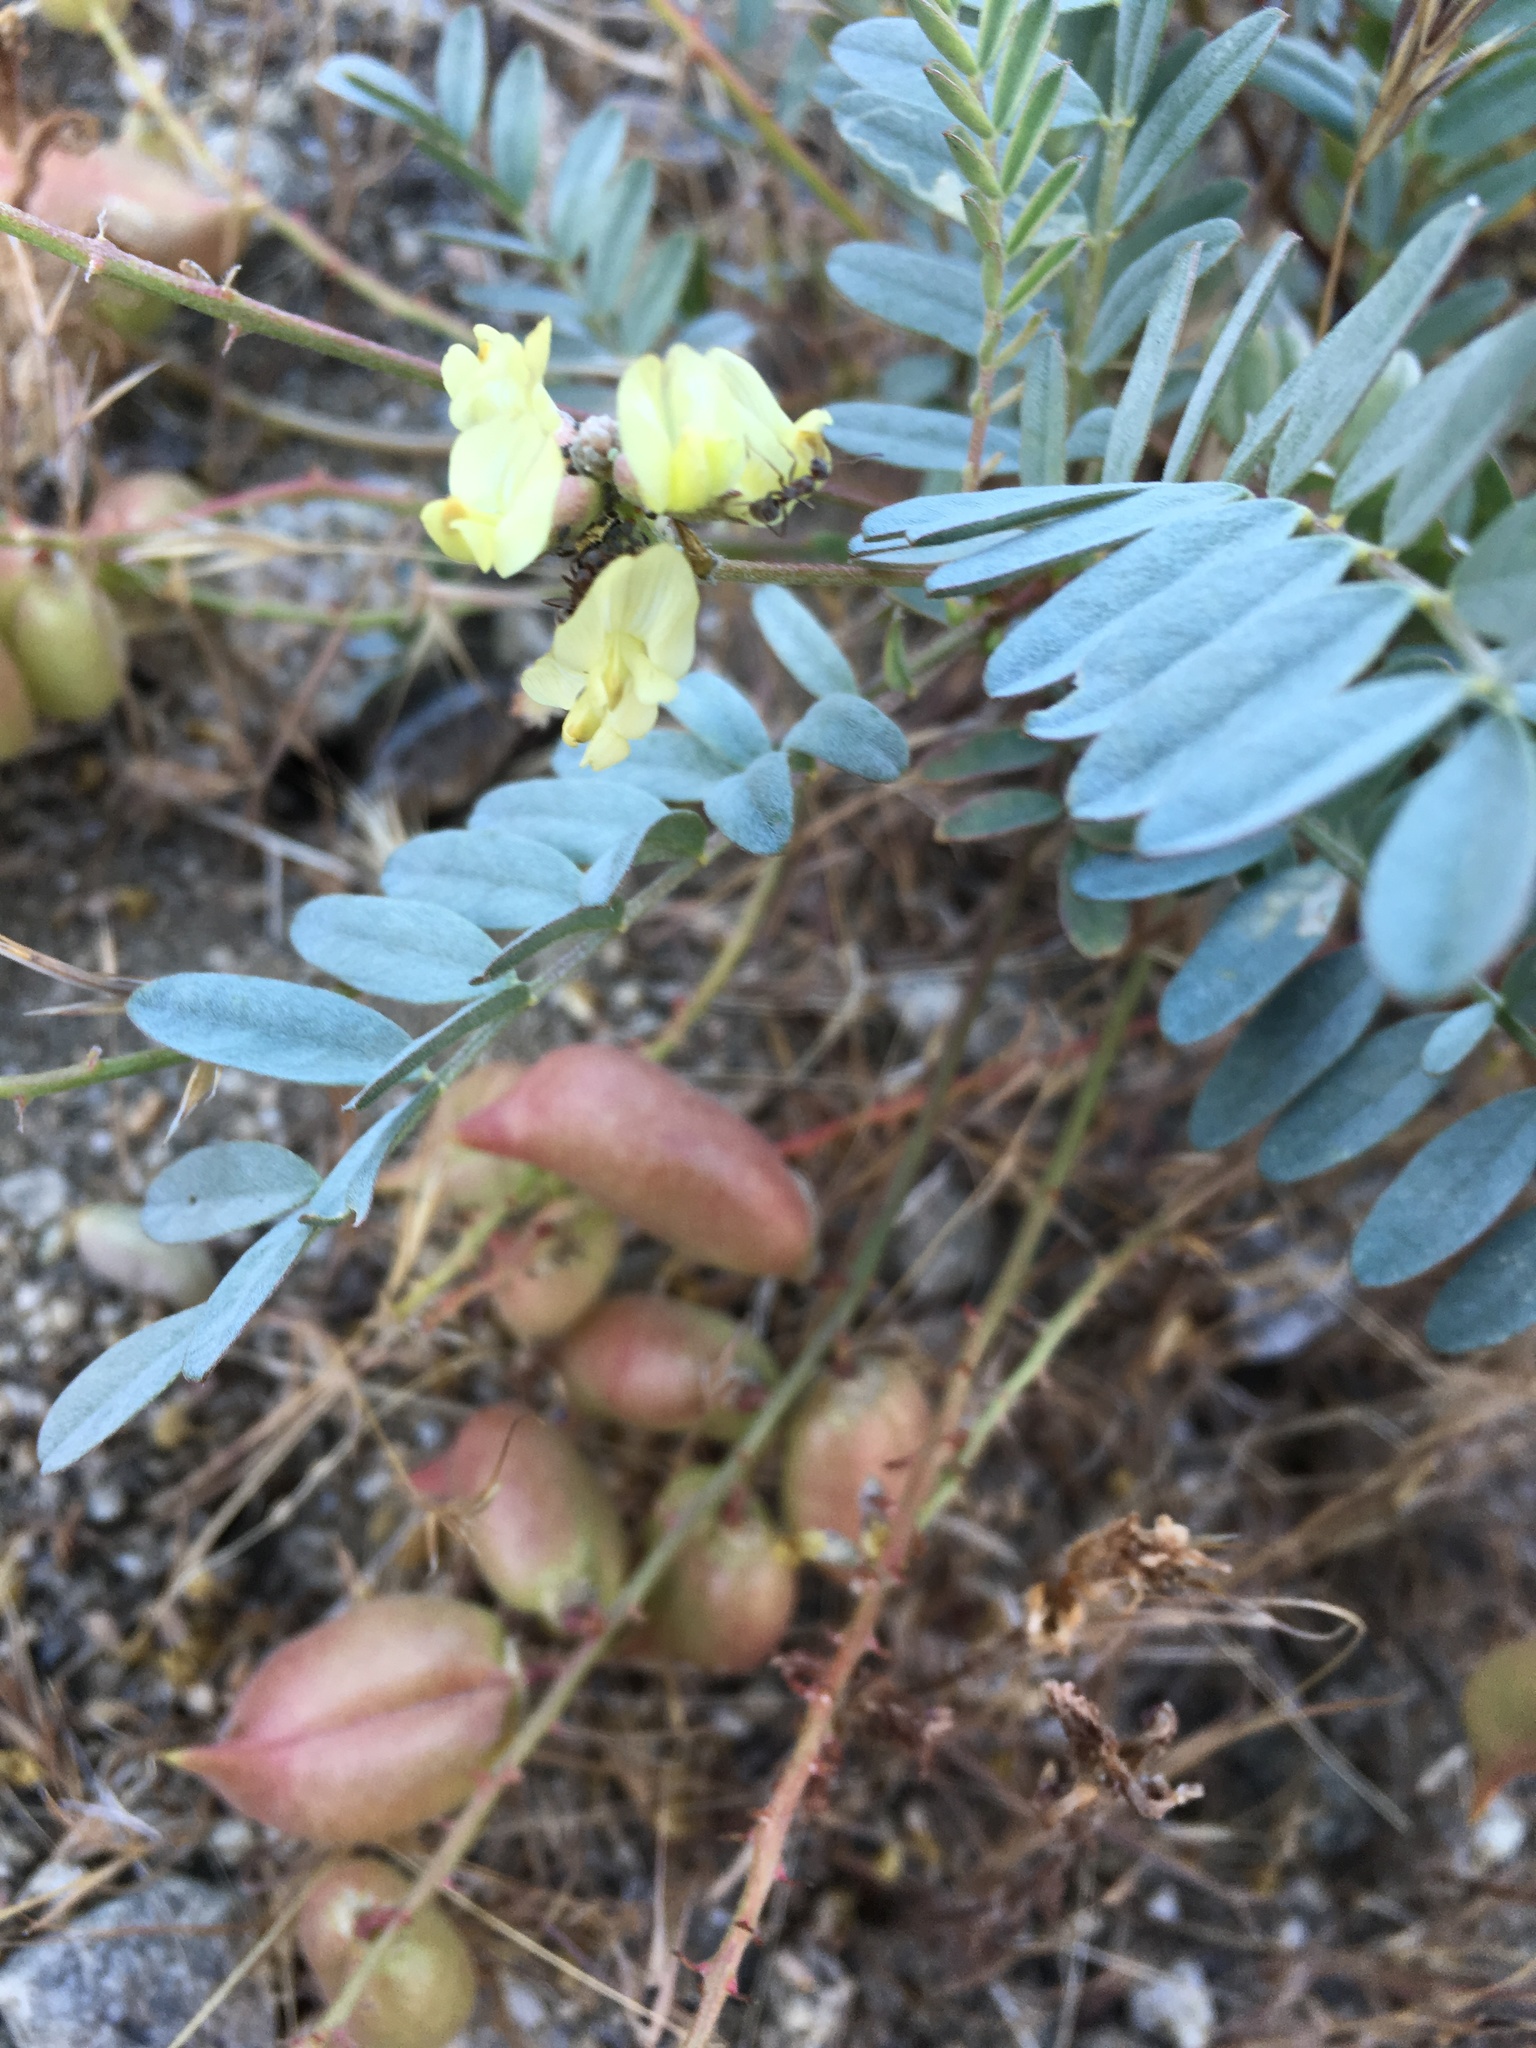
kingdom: Plantae
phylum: Tracheophyta
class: Magnoliopsida
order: Fabales
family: Fabaceae
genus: Astragalus
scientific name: Astragalus douglasii
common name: Jacumba milkvetch
